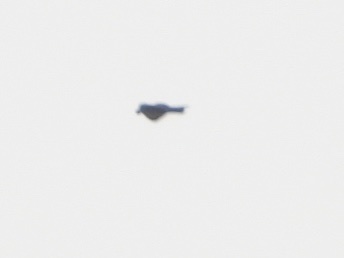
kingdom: Animalia
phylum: Chordata
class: Aves
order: Passeriformes
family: Corvidae
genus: Aphelocoma
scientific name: Aphelocoma californica
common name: California scrub-jay
